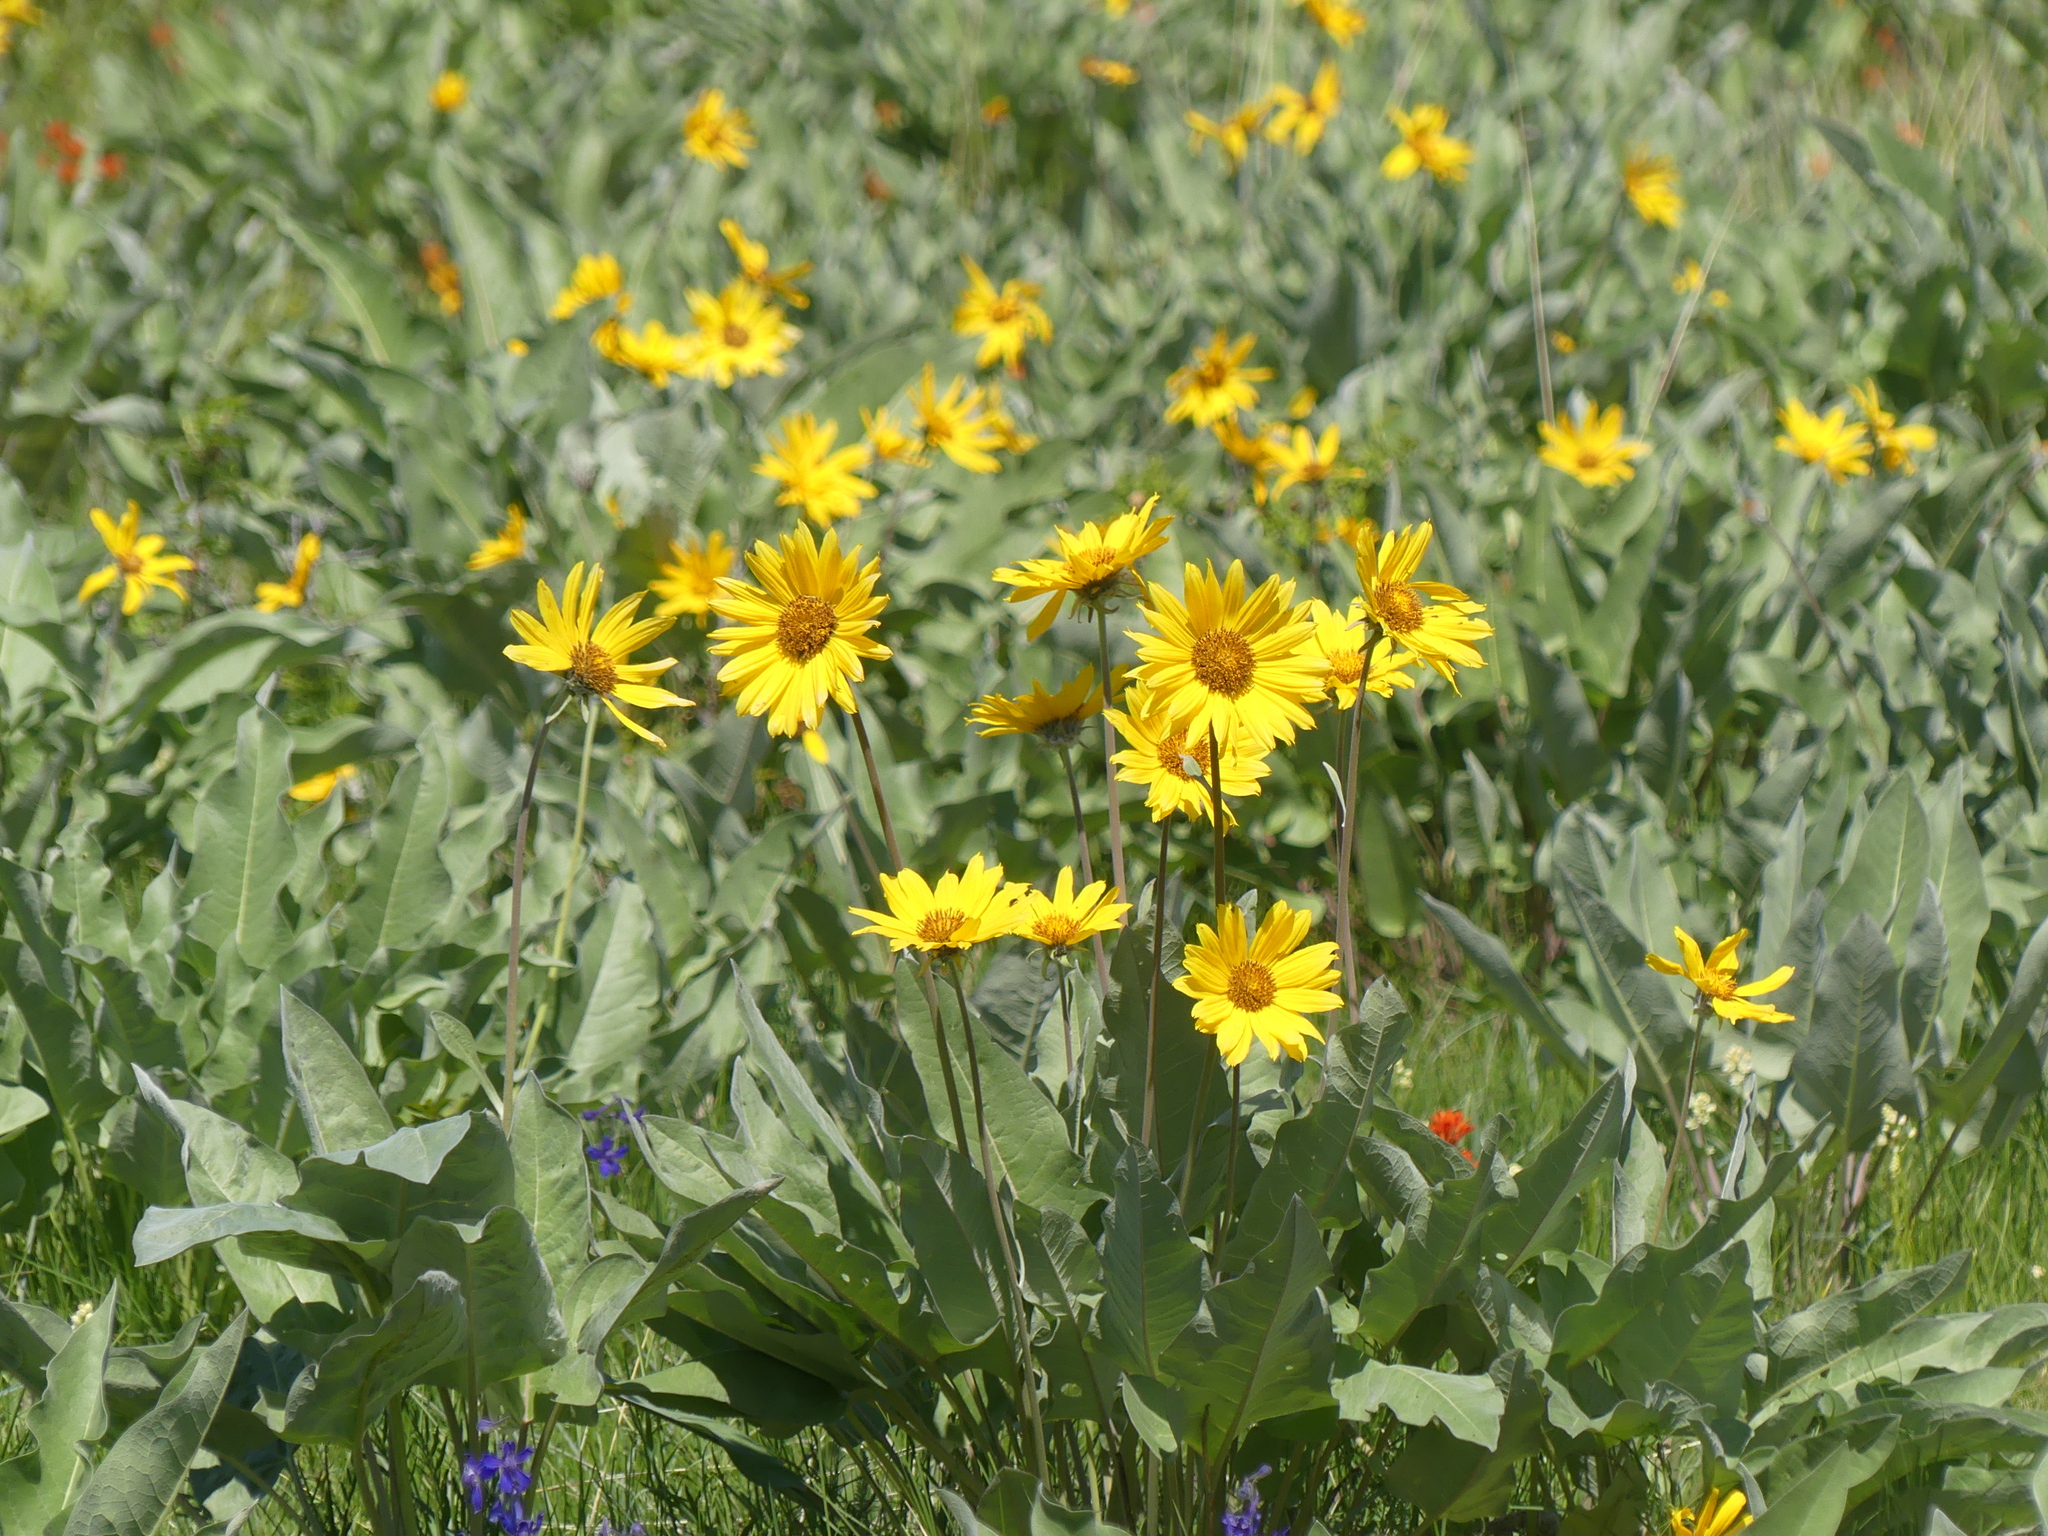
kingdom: Plantae
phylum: Tracheophyta
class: Magnoliopsida
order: Asterales
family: Asteraceae
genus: Wyethia
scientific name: Wyethia sagittata
